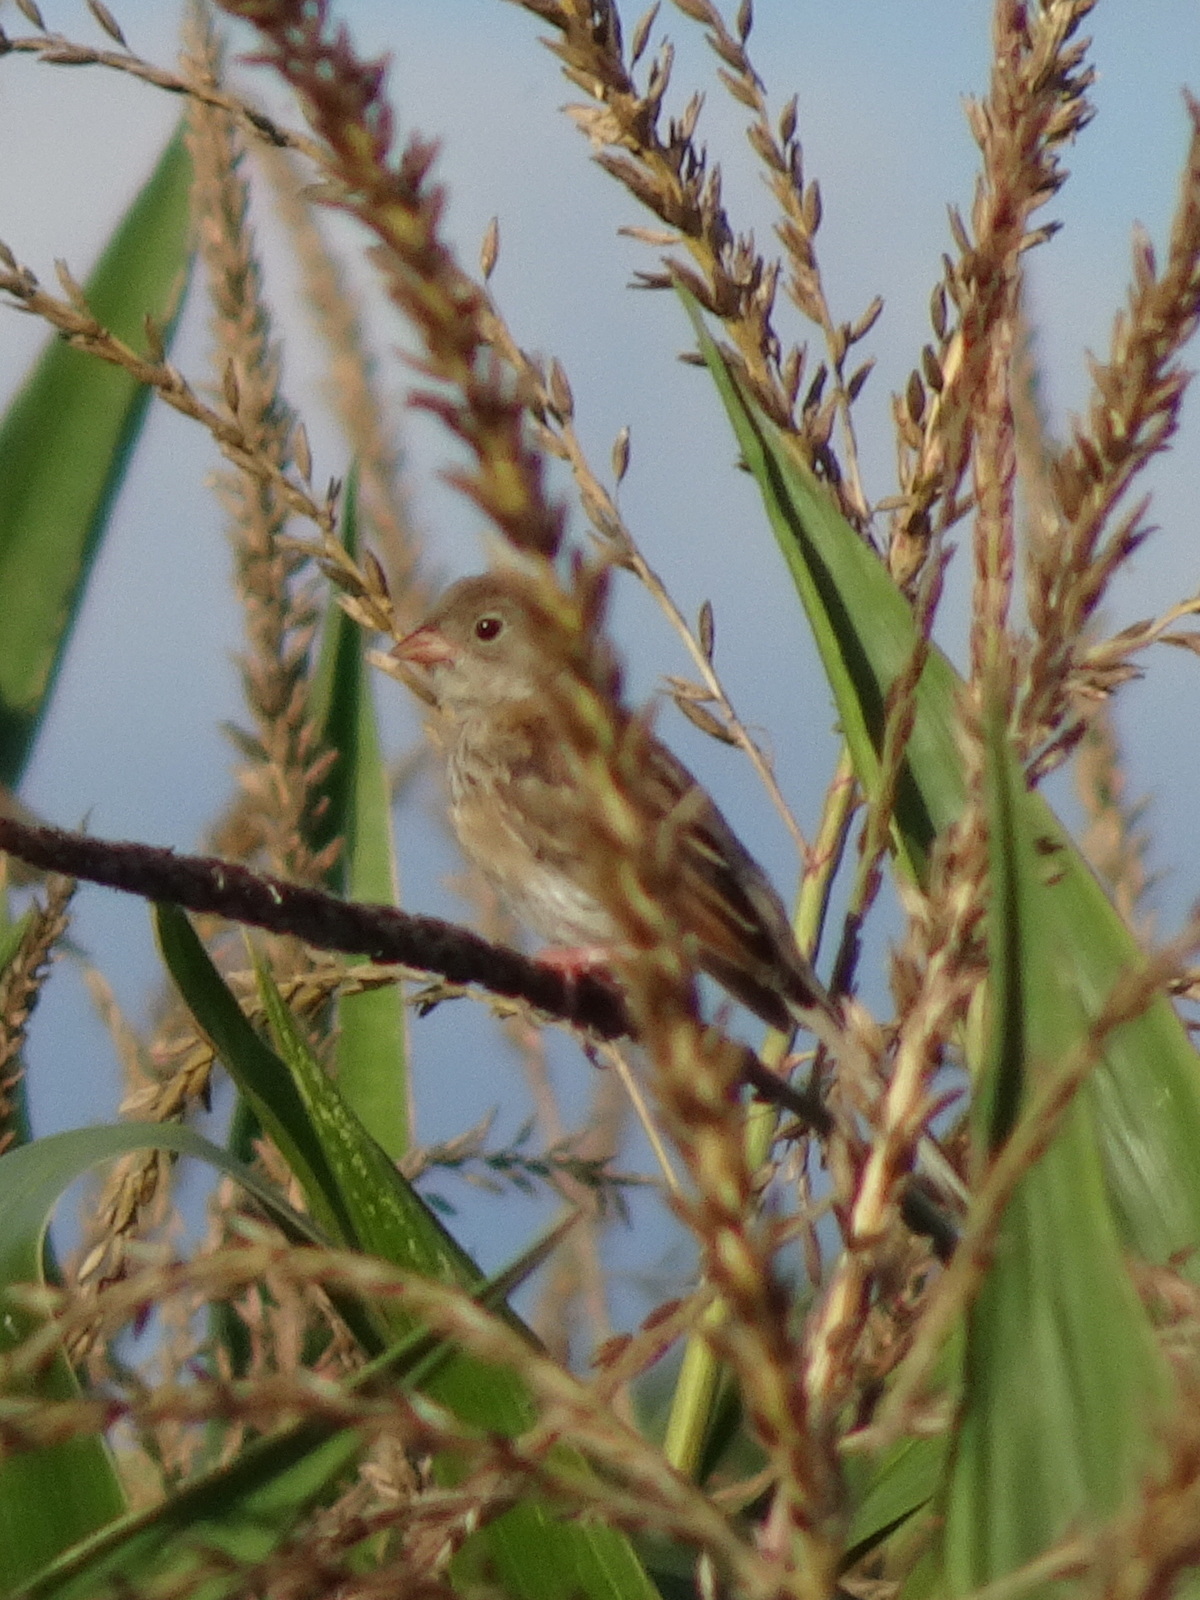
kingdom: Animalia
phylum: Chordata
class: Aves
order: Passeriformes
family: Passerellidae
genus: Spizella
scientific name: Spizella pusilla
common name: Field sparrow
